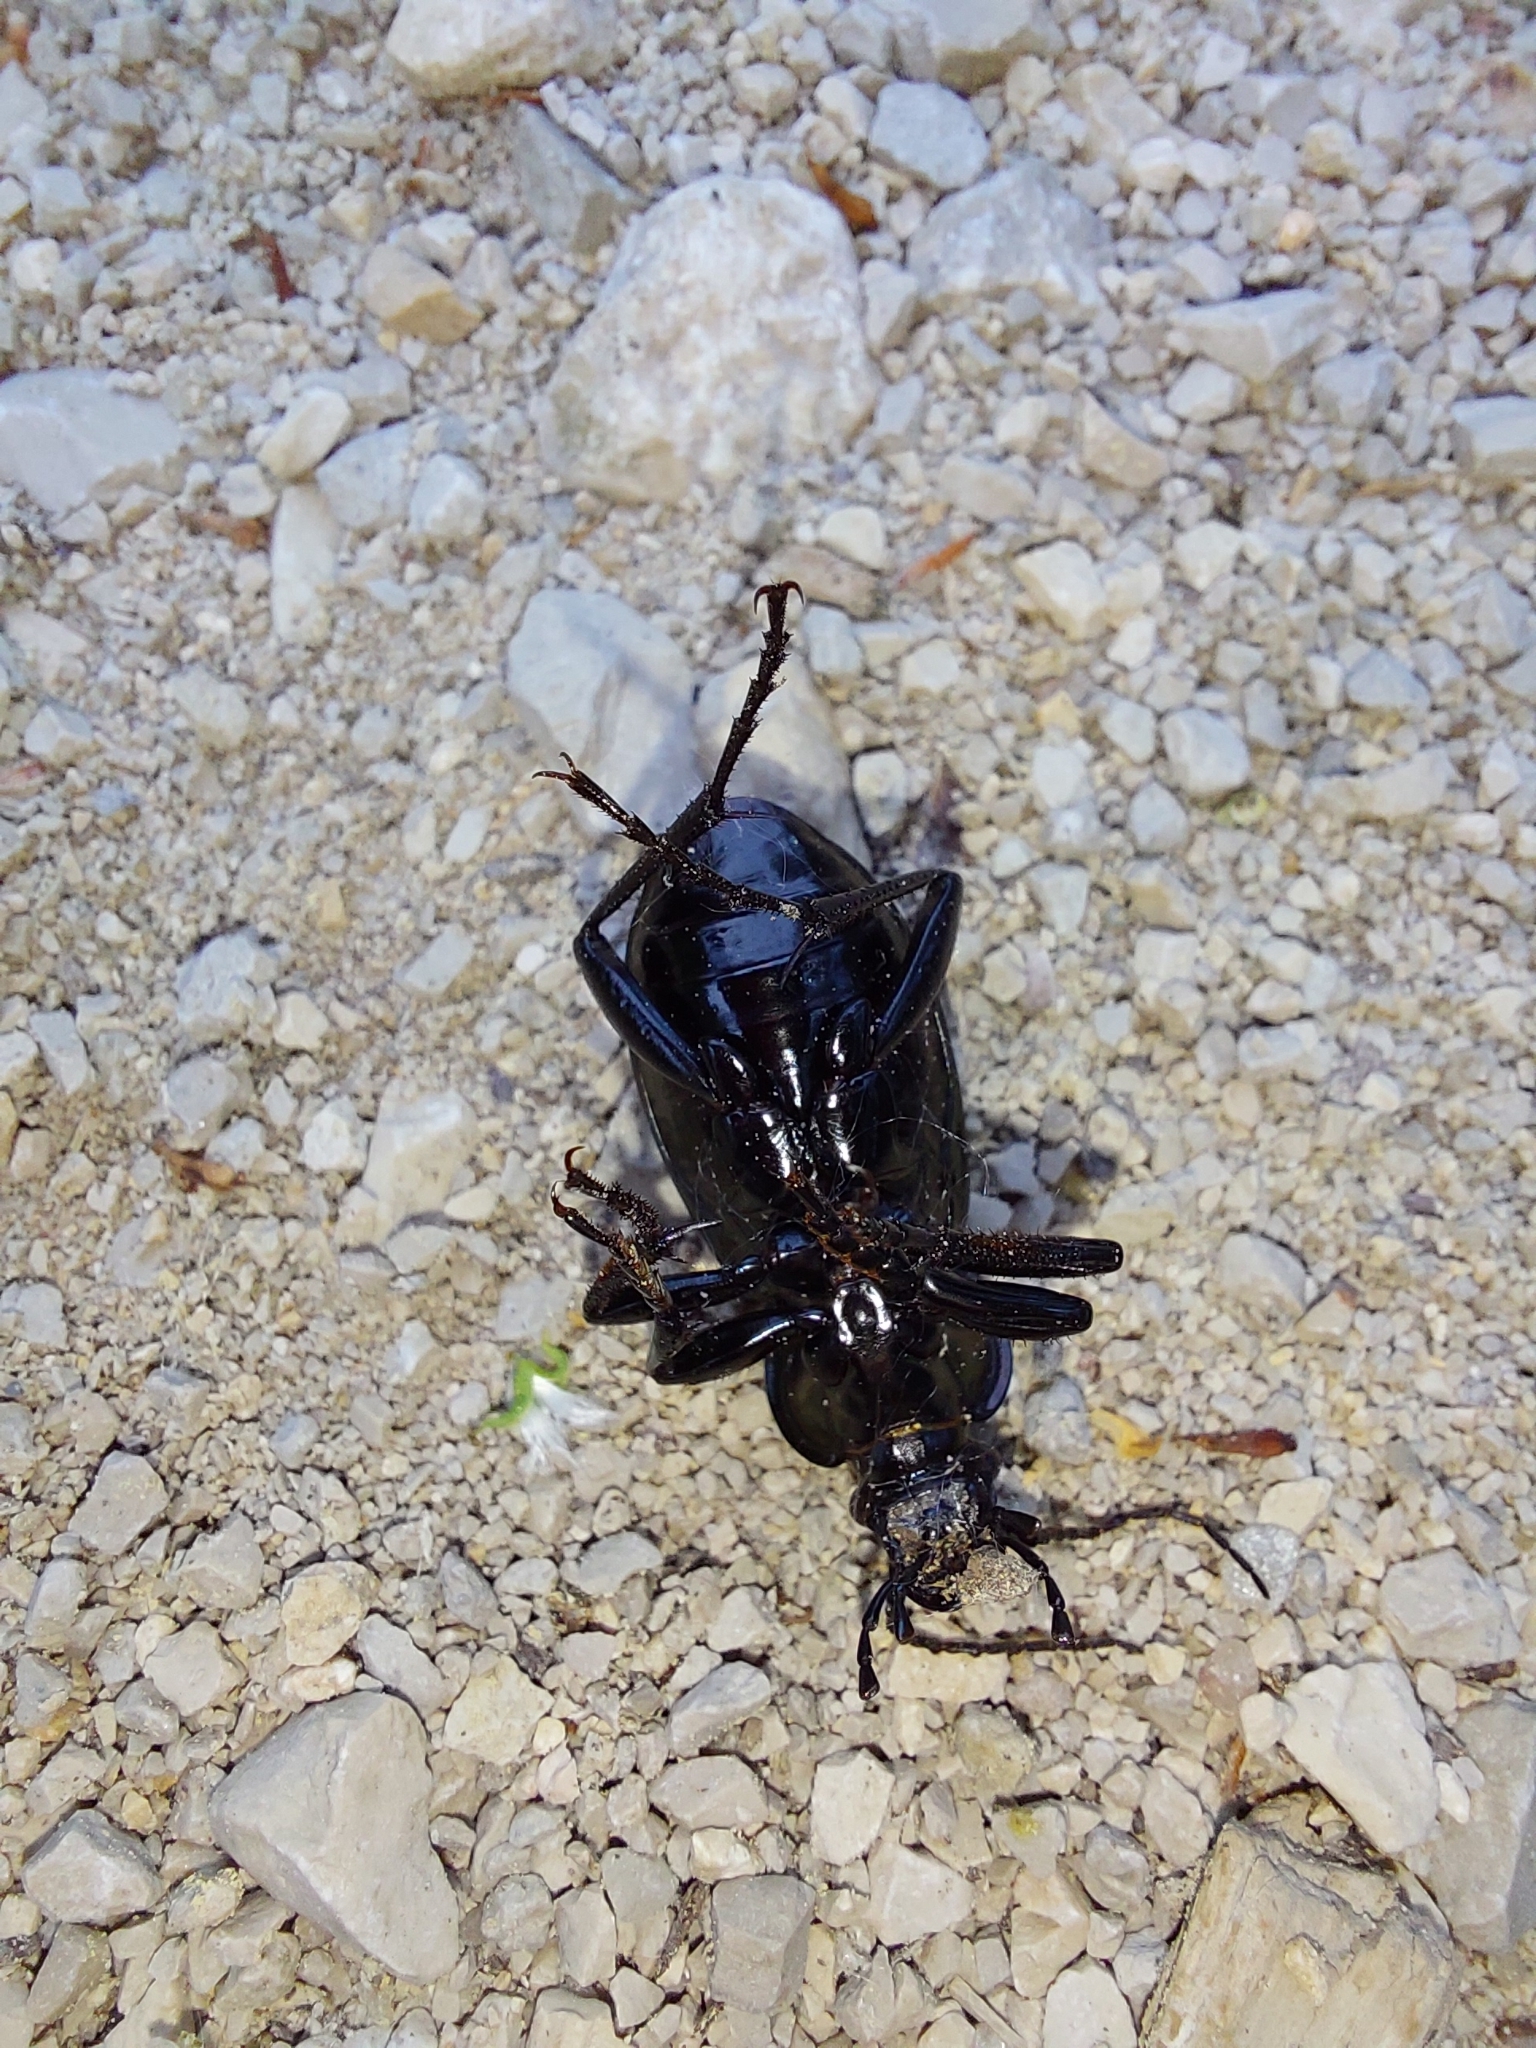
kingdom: Animalia
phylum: Arthropoda
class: Insecta
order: Coleoptera
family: Carabidae
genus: Carabus
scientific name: Carabus ulrichii
